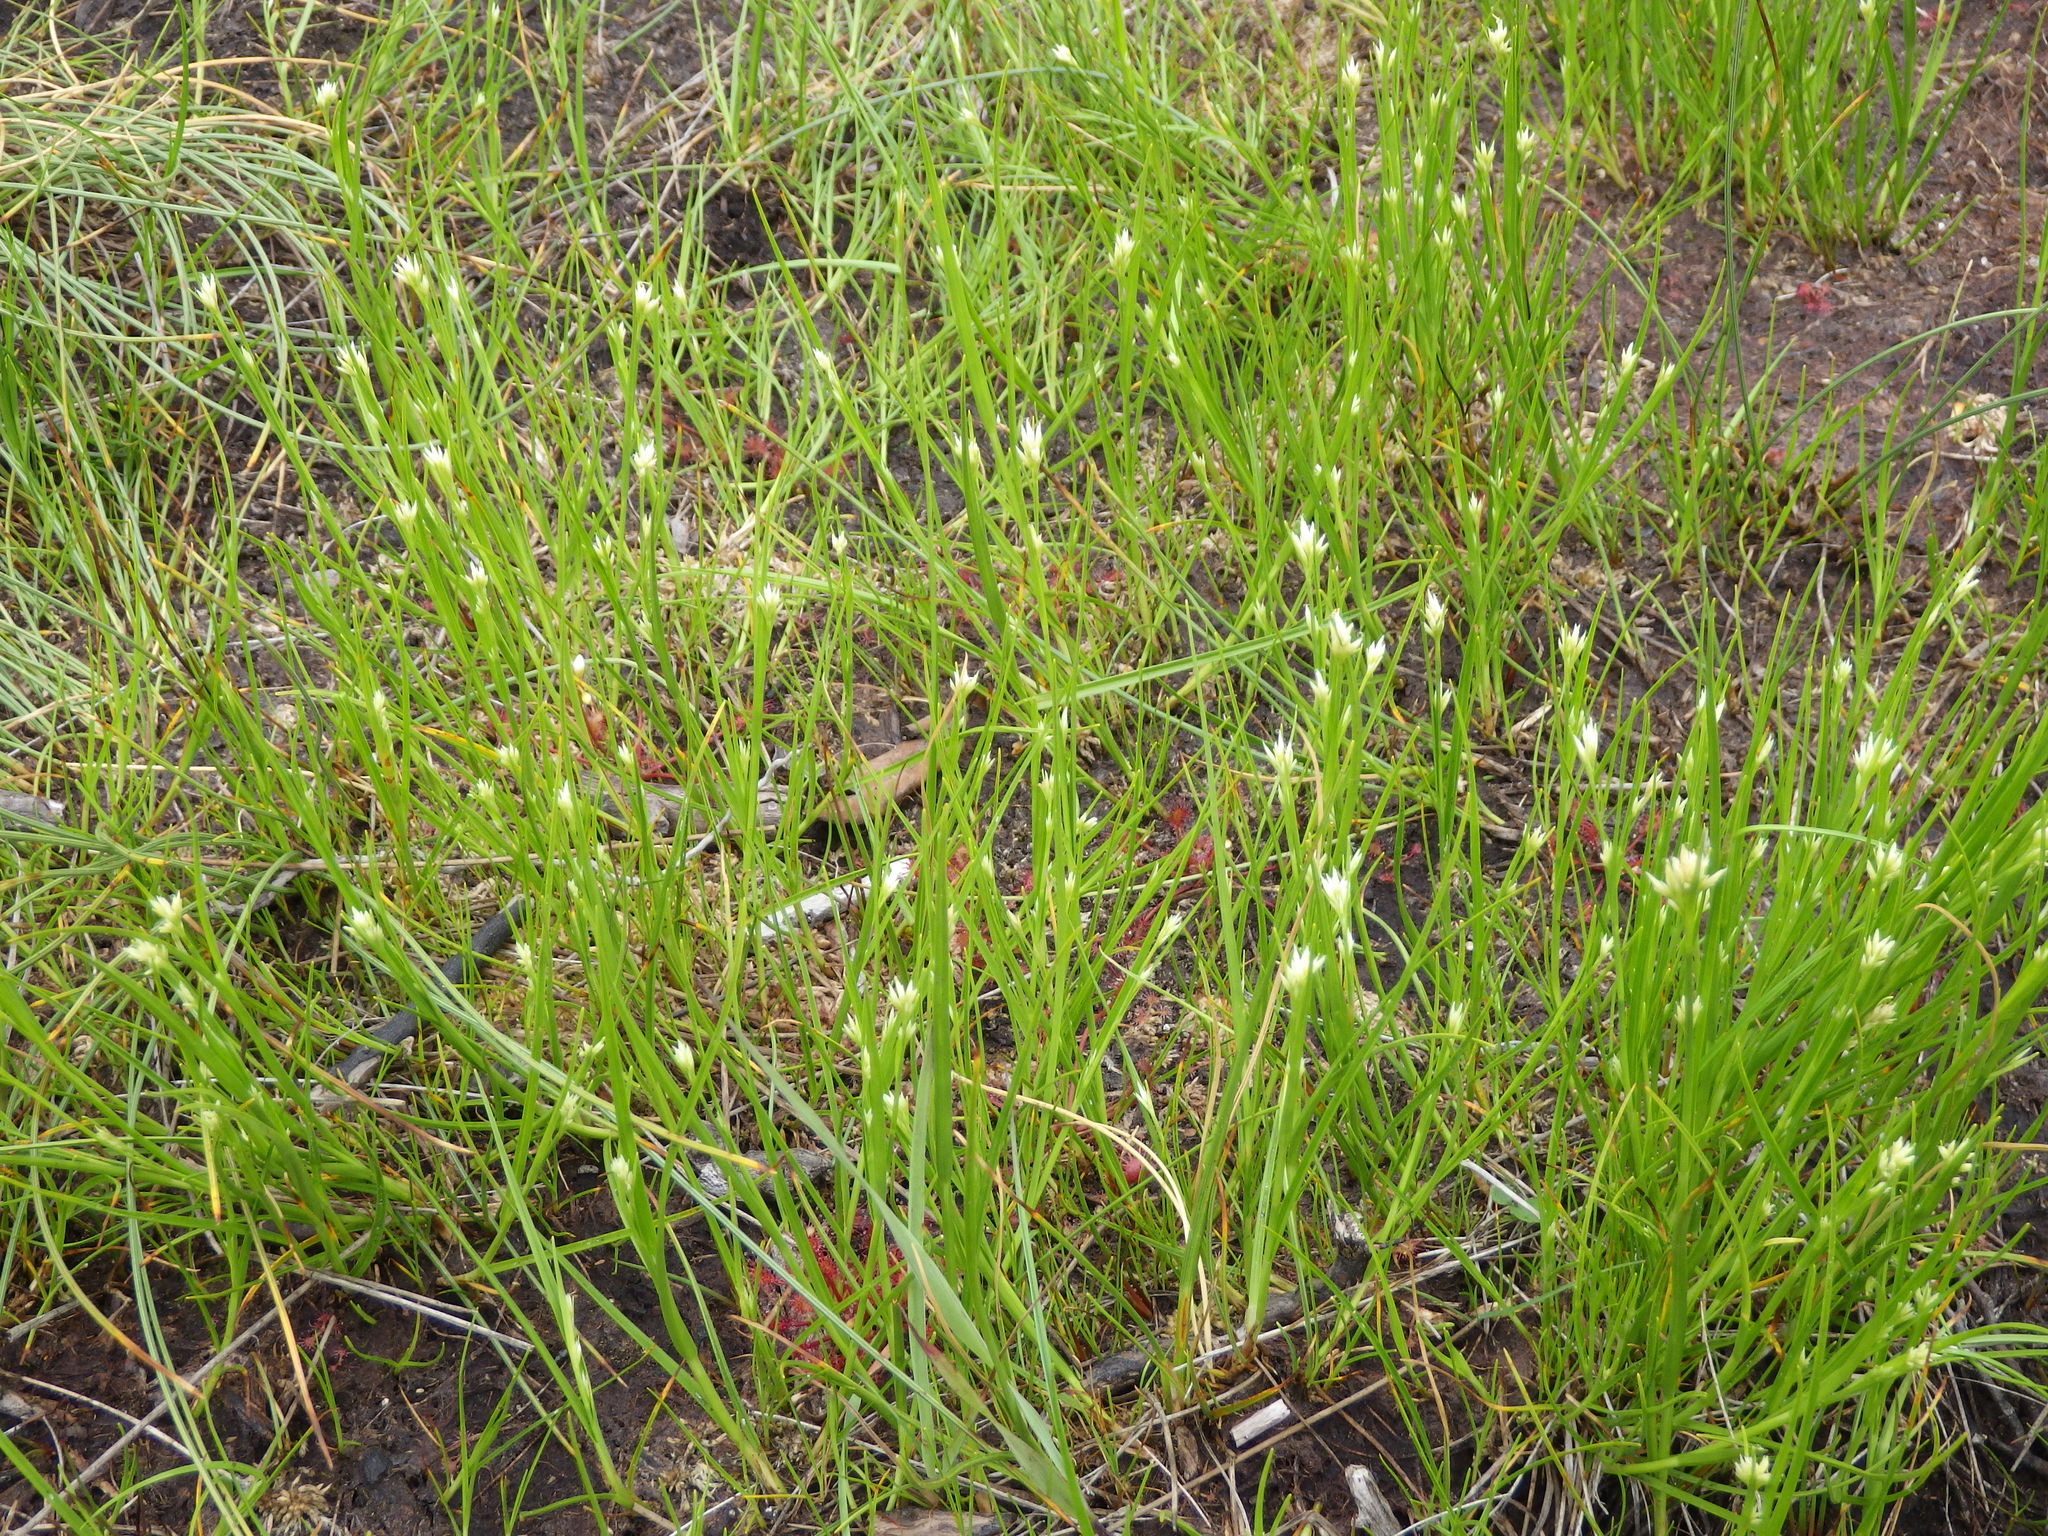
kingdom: Plantae
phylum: Tracheophyta
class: Liliopsida
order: Poales
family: Cyperaceae
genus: Rhynchospora
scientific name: Rhynchospora alba
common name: White beak-sedge
